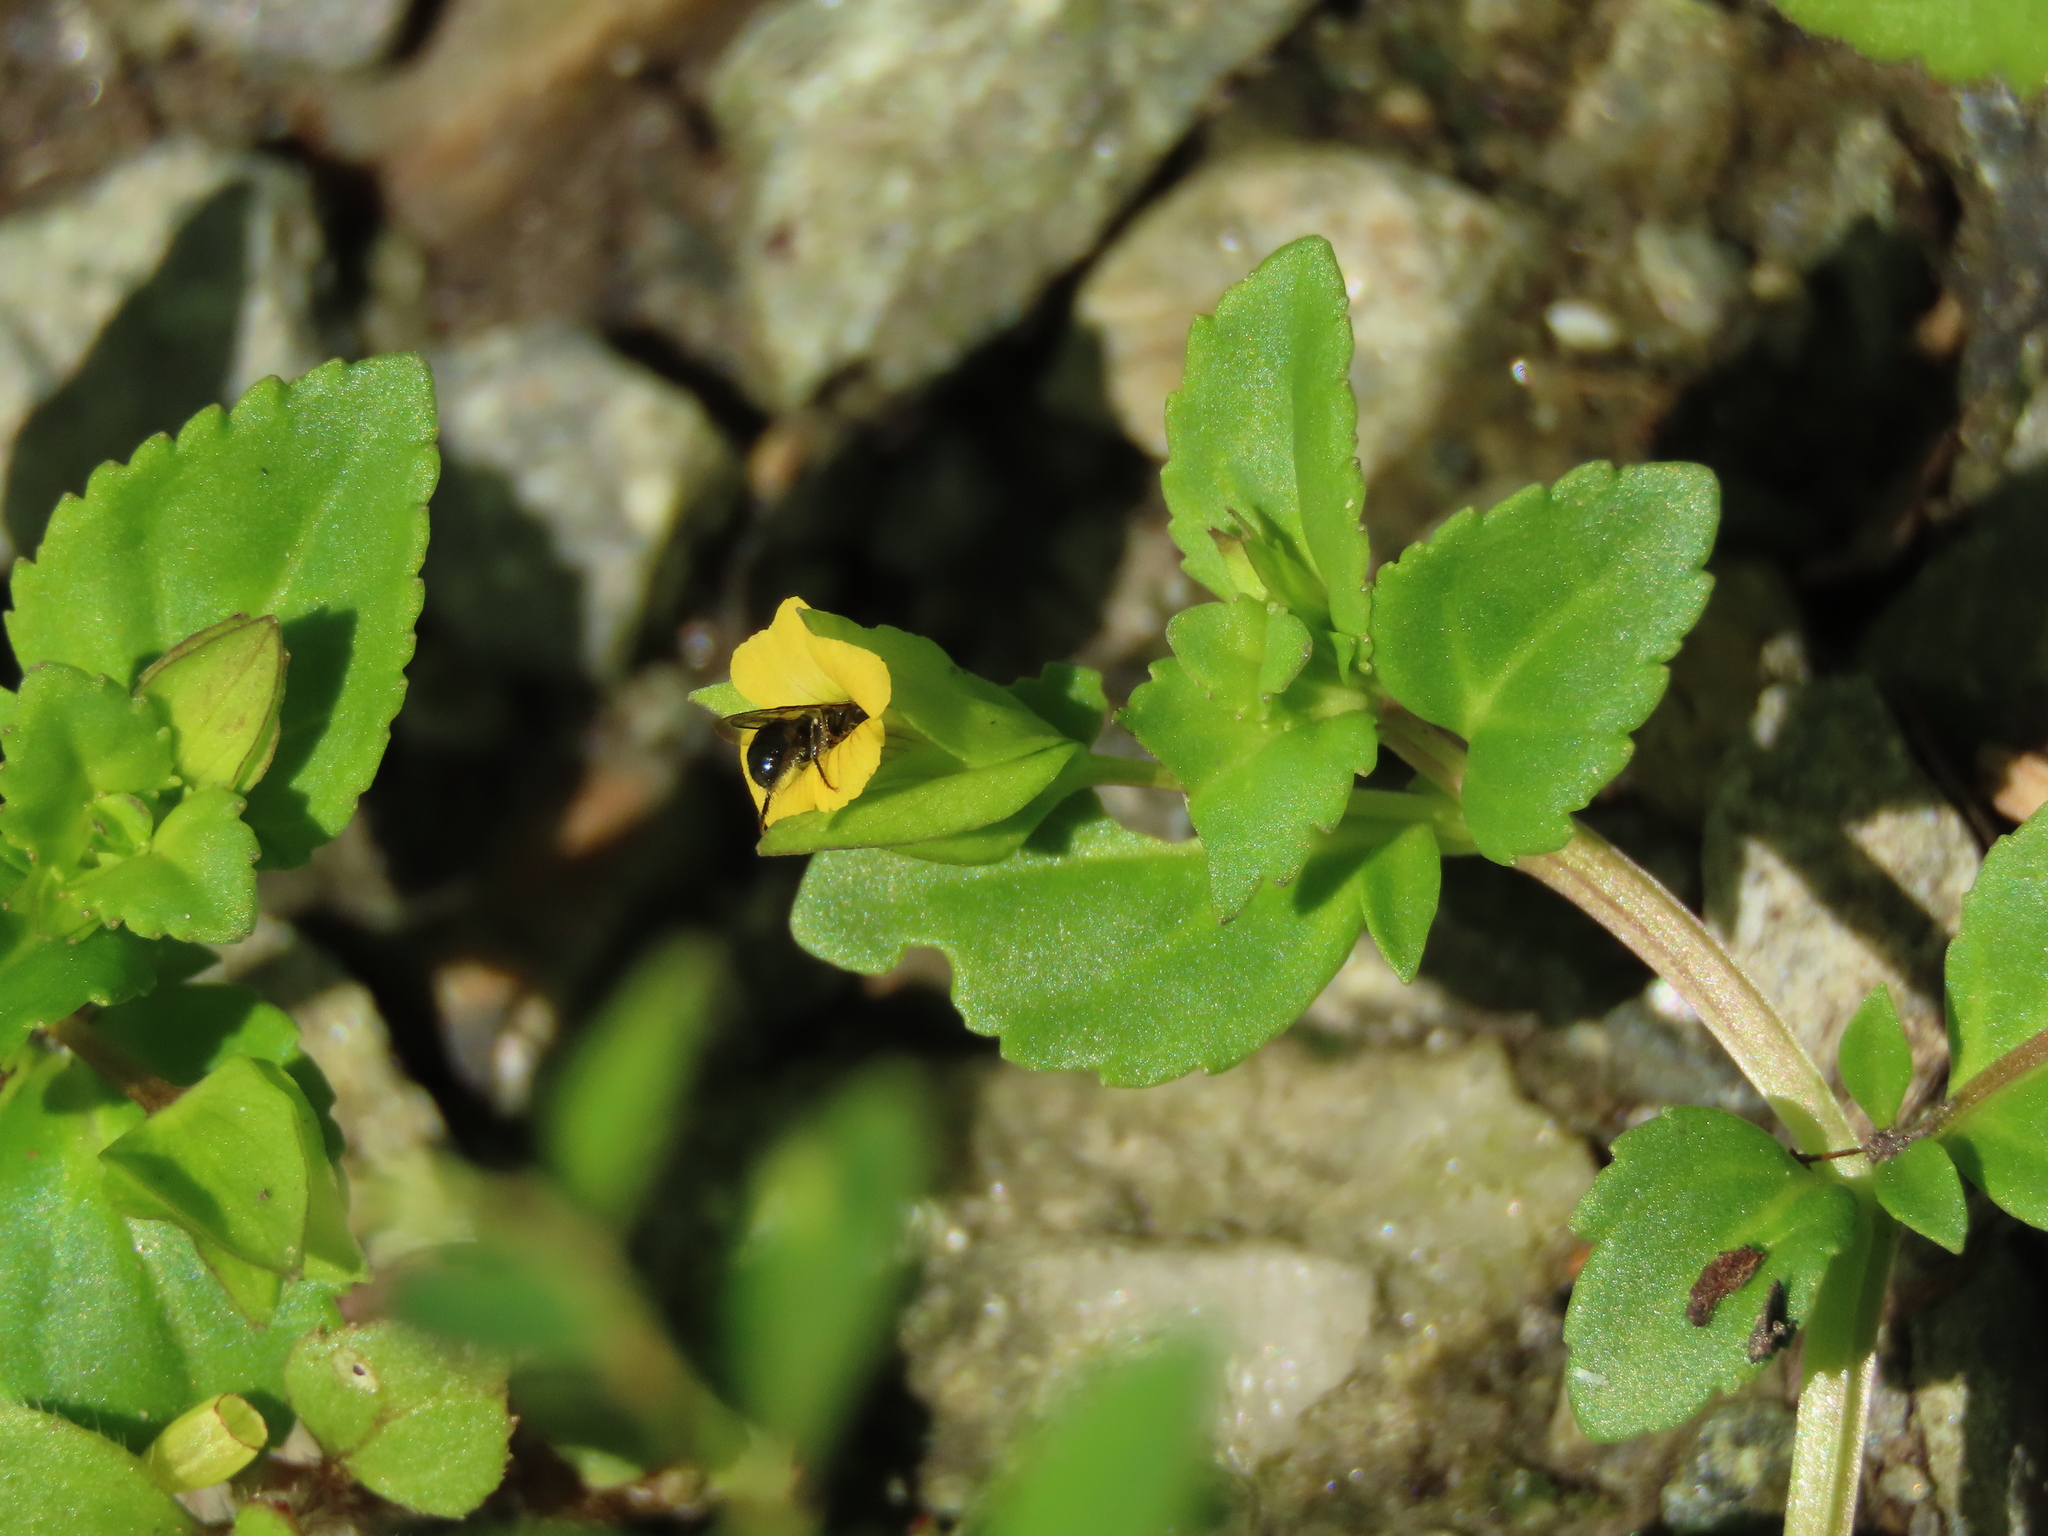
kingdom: Plantae
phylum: Tracheophyta
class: Magnoliopsida
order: Lamiales
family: Plantaginaceae
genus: Mecardonia
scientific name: Mecardonia procumbens
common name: Baby jump-up
